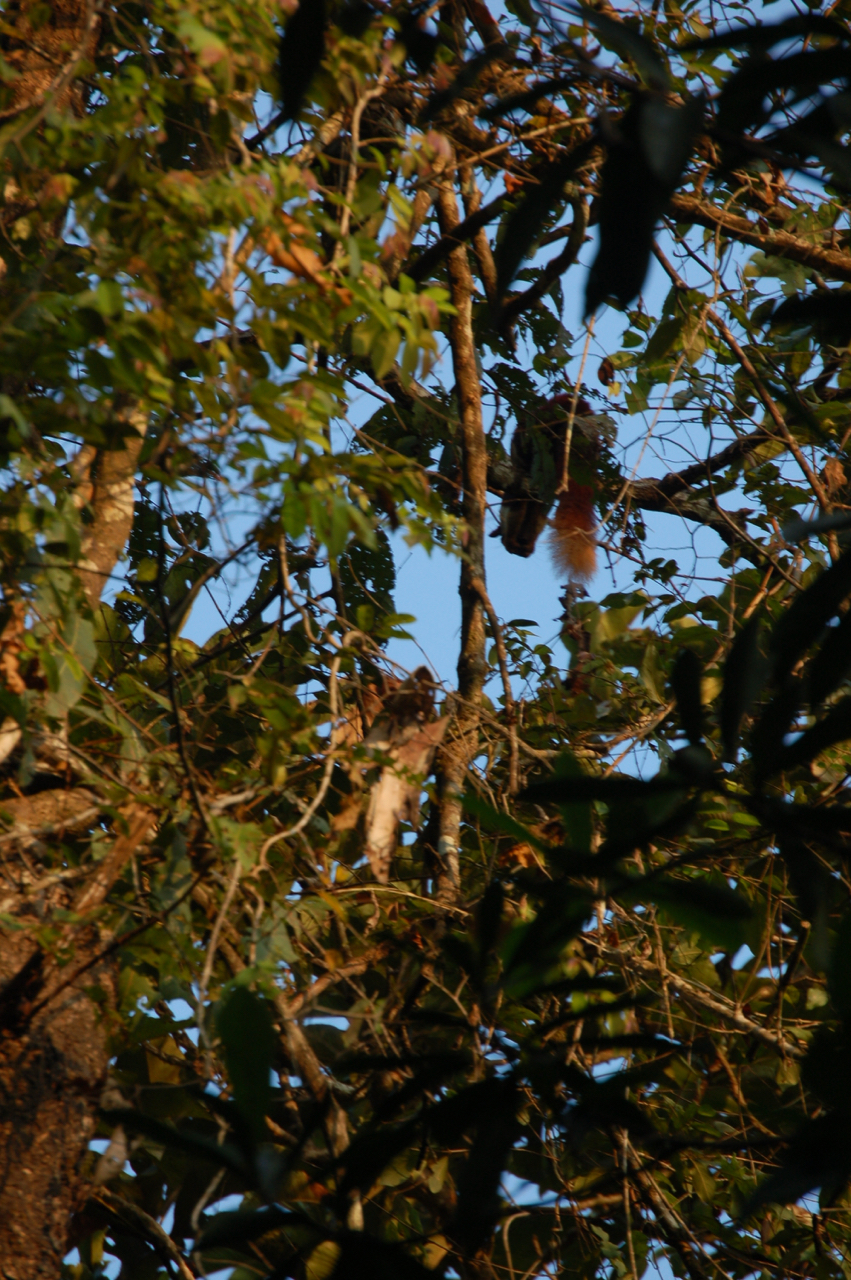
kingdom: Animalia
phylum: Chordata
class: Mammalia
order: Rodentia
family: Sciuridae
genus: Ratufa
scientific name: Ratufa indica
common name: Indian giant squirrel
